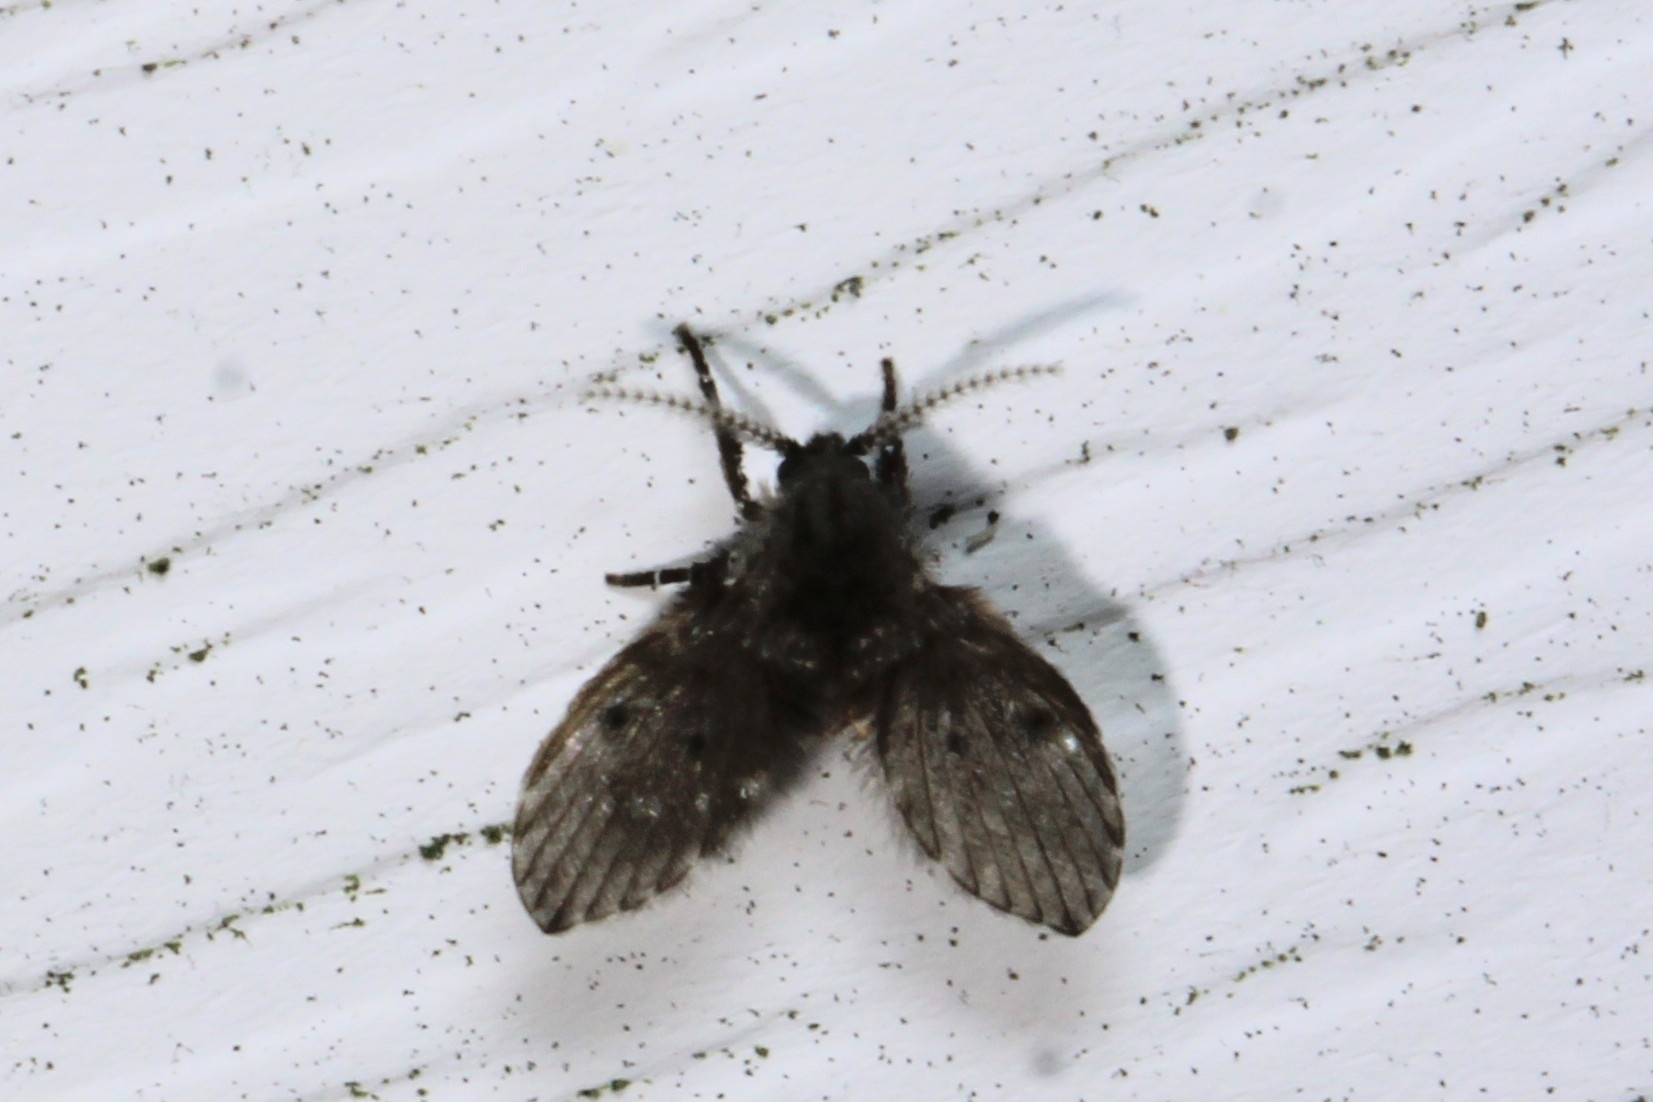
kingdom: Animalia
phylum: Arthropoda
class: Insecta
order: Diptera
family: Psychodidae
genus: Clogmia
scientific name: Clogmia albipunctatus
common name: White-spotted moth fly
